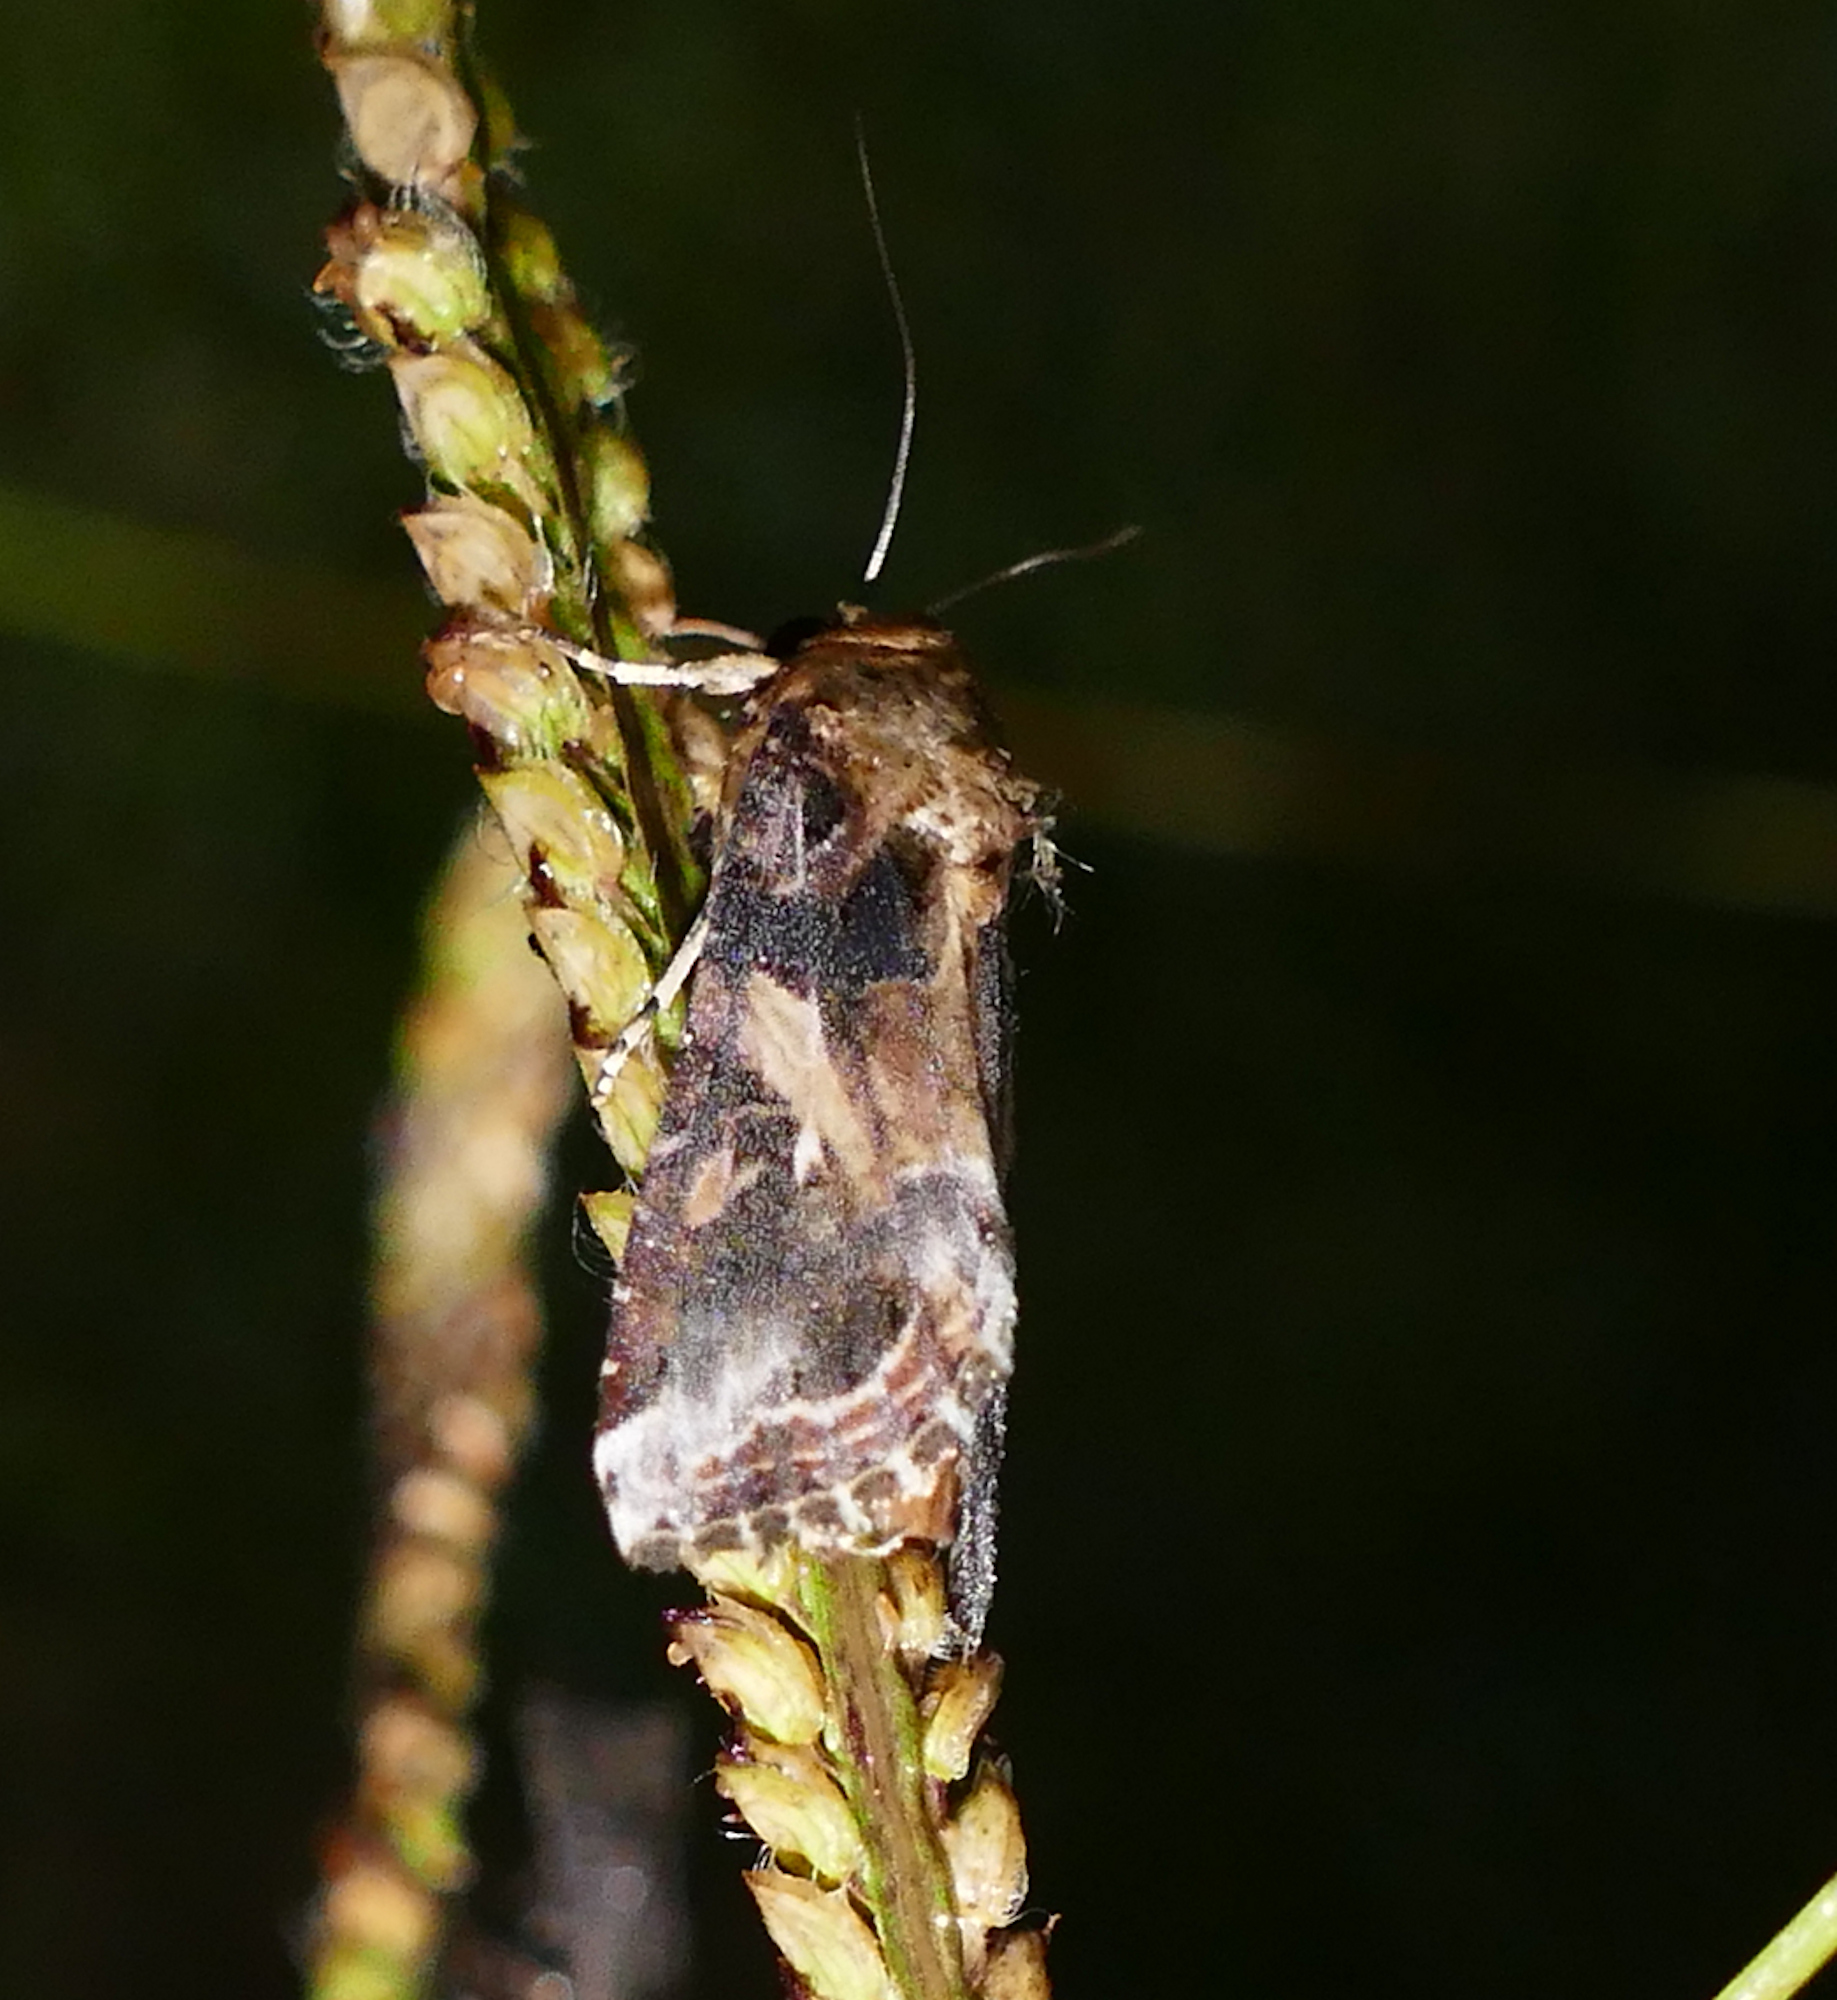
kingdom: Animalia
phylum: Arthropoda
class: Insecta
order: Lepidoptera
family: Noctuidae
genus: Spodoptera
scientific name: Spodoptera ornithogalli
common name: Yellow-striped armyworm
